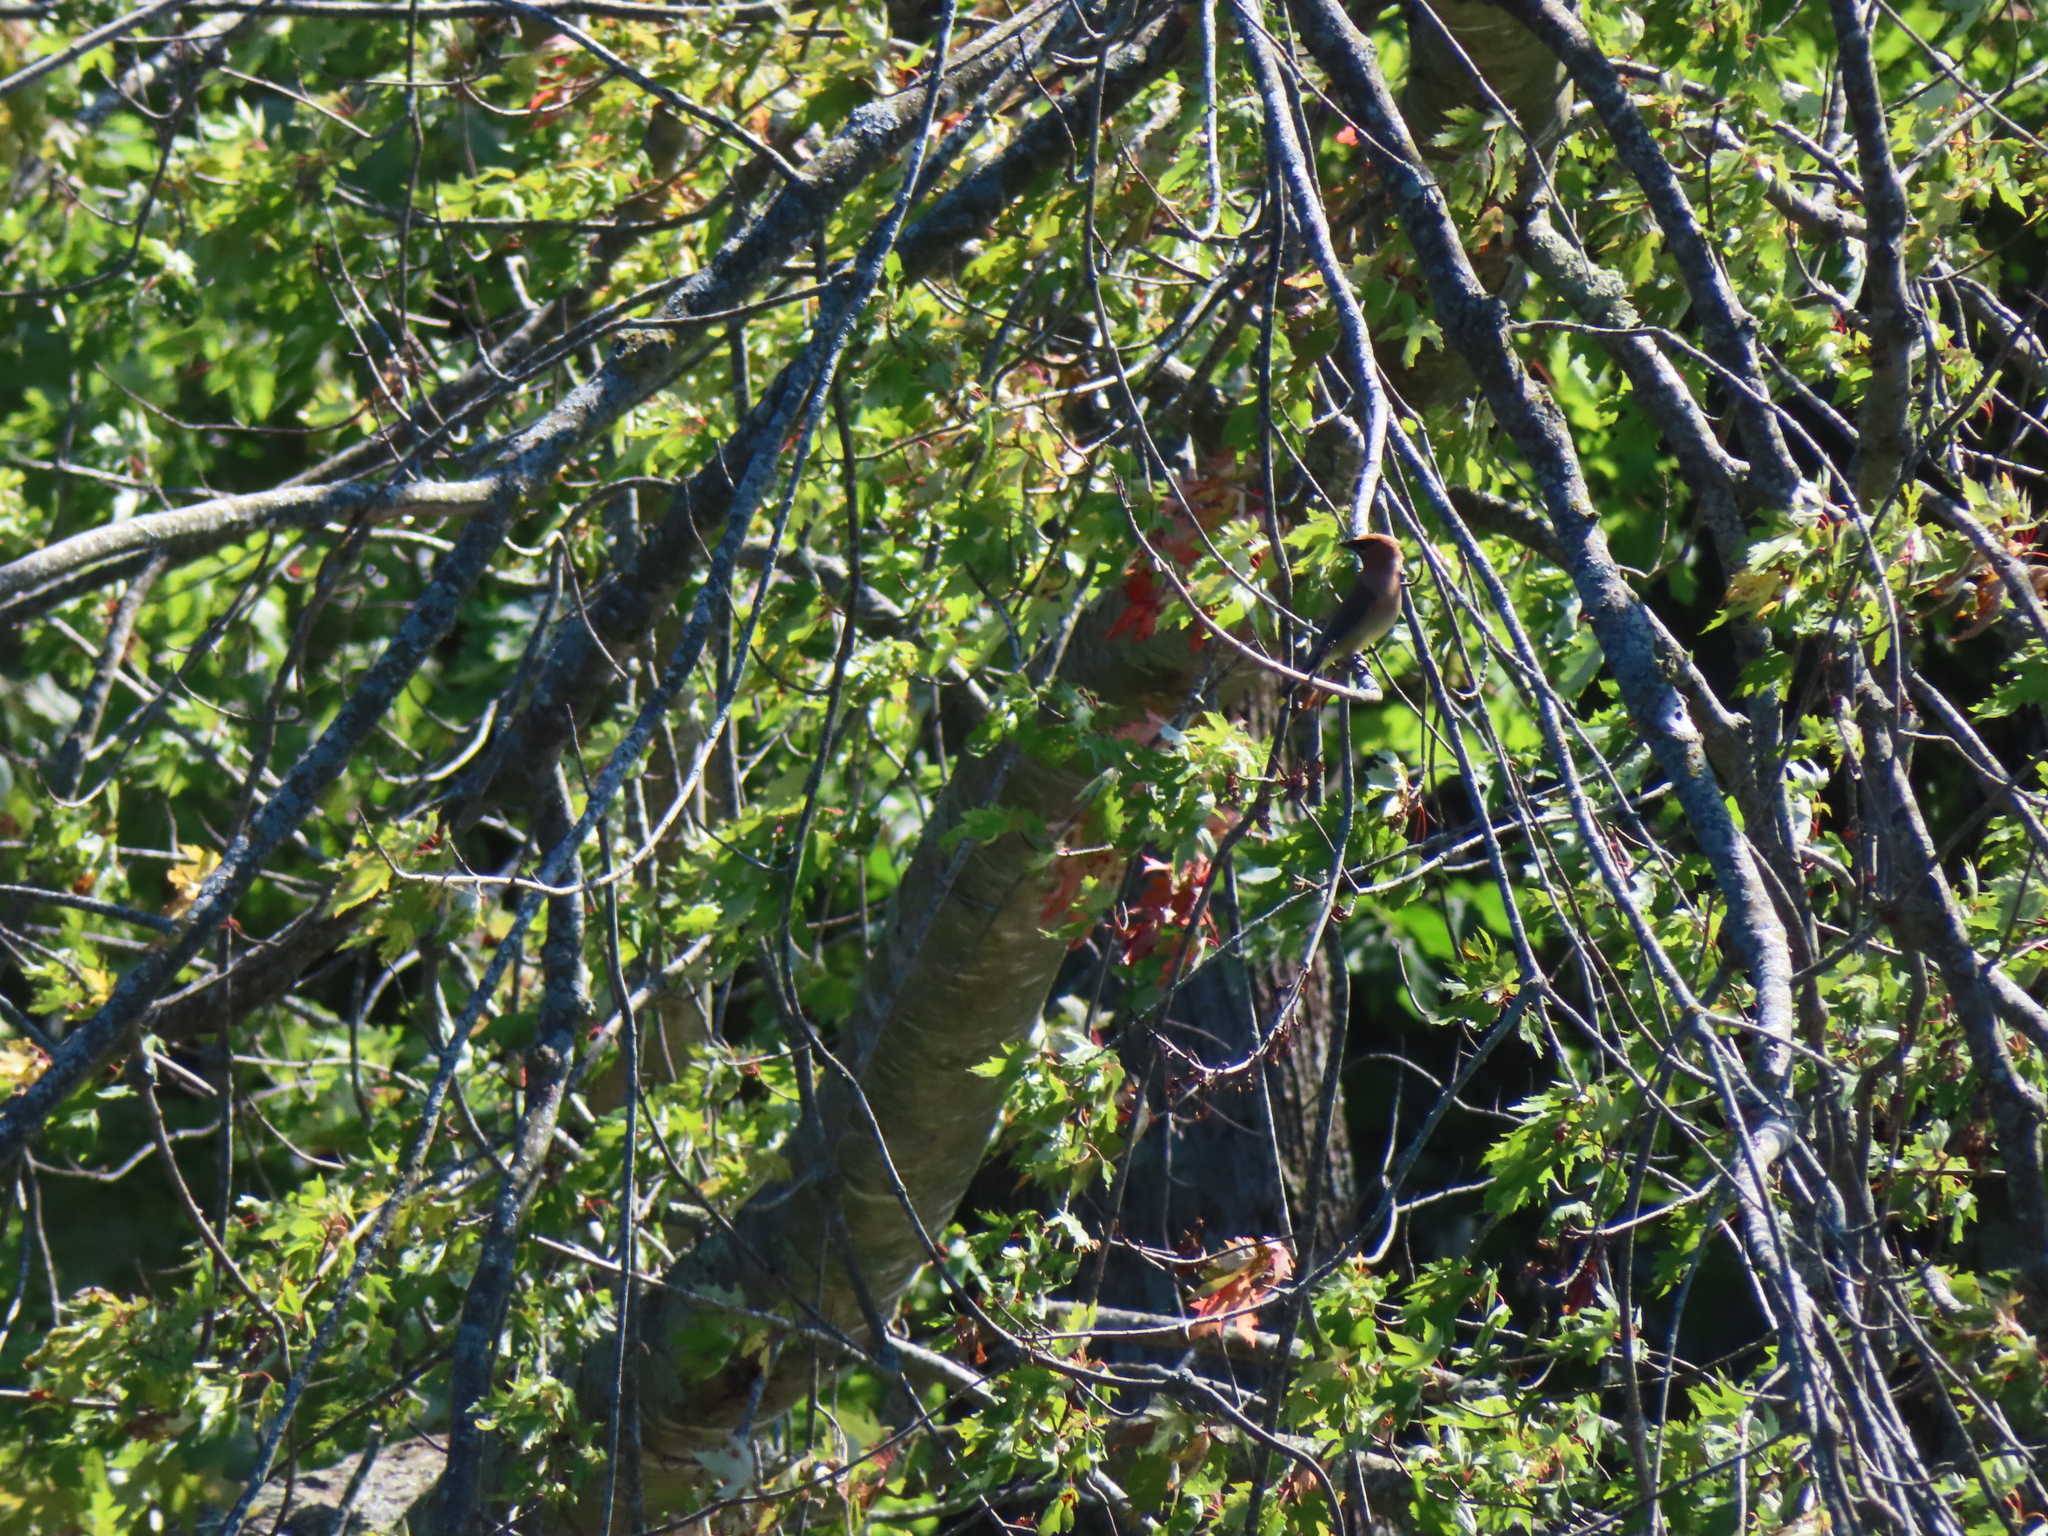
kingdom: Animalia
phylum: Chordata
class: Aves
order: Passeriformes
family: Bombycillidae
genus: Bombycilla
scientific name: Bombycilla cedrorum
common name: Cedar waxwing
